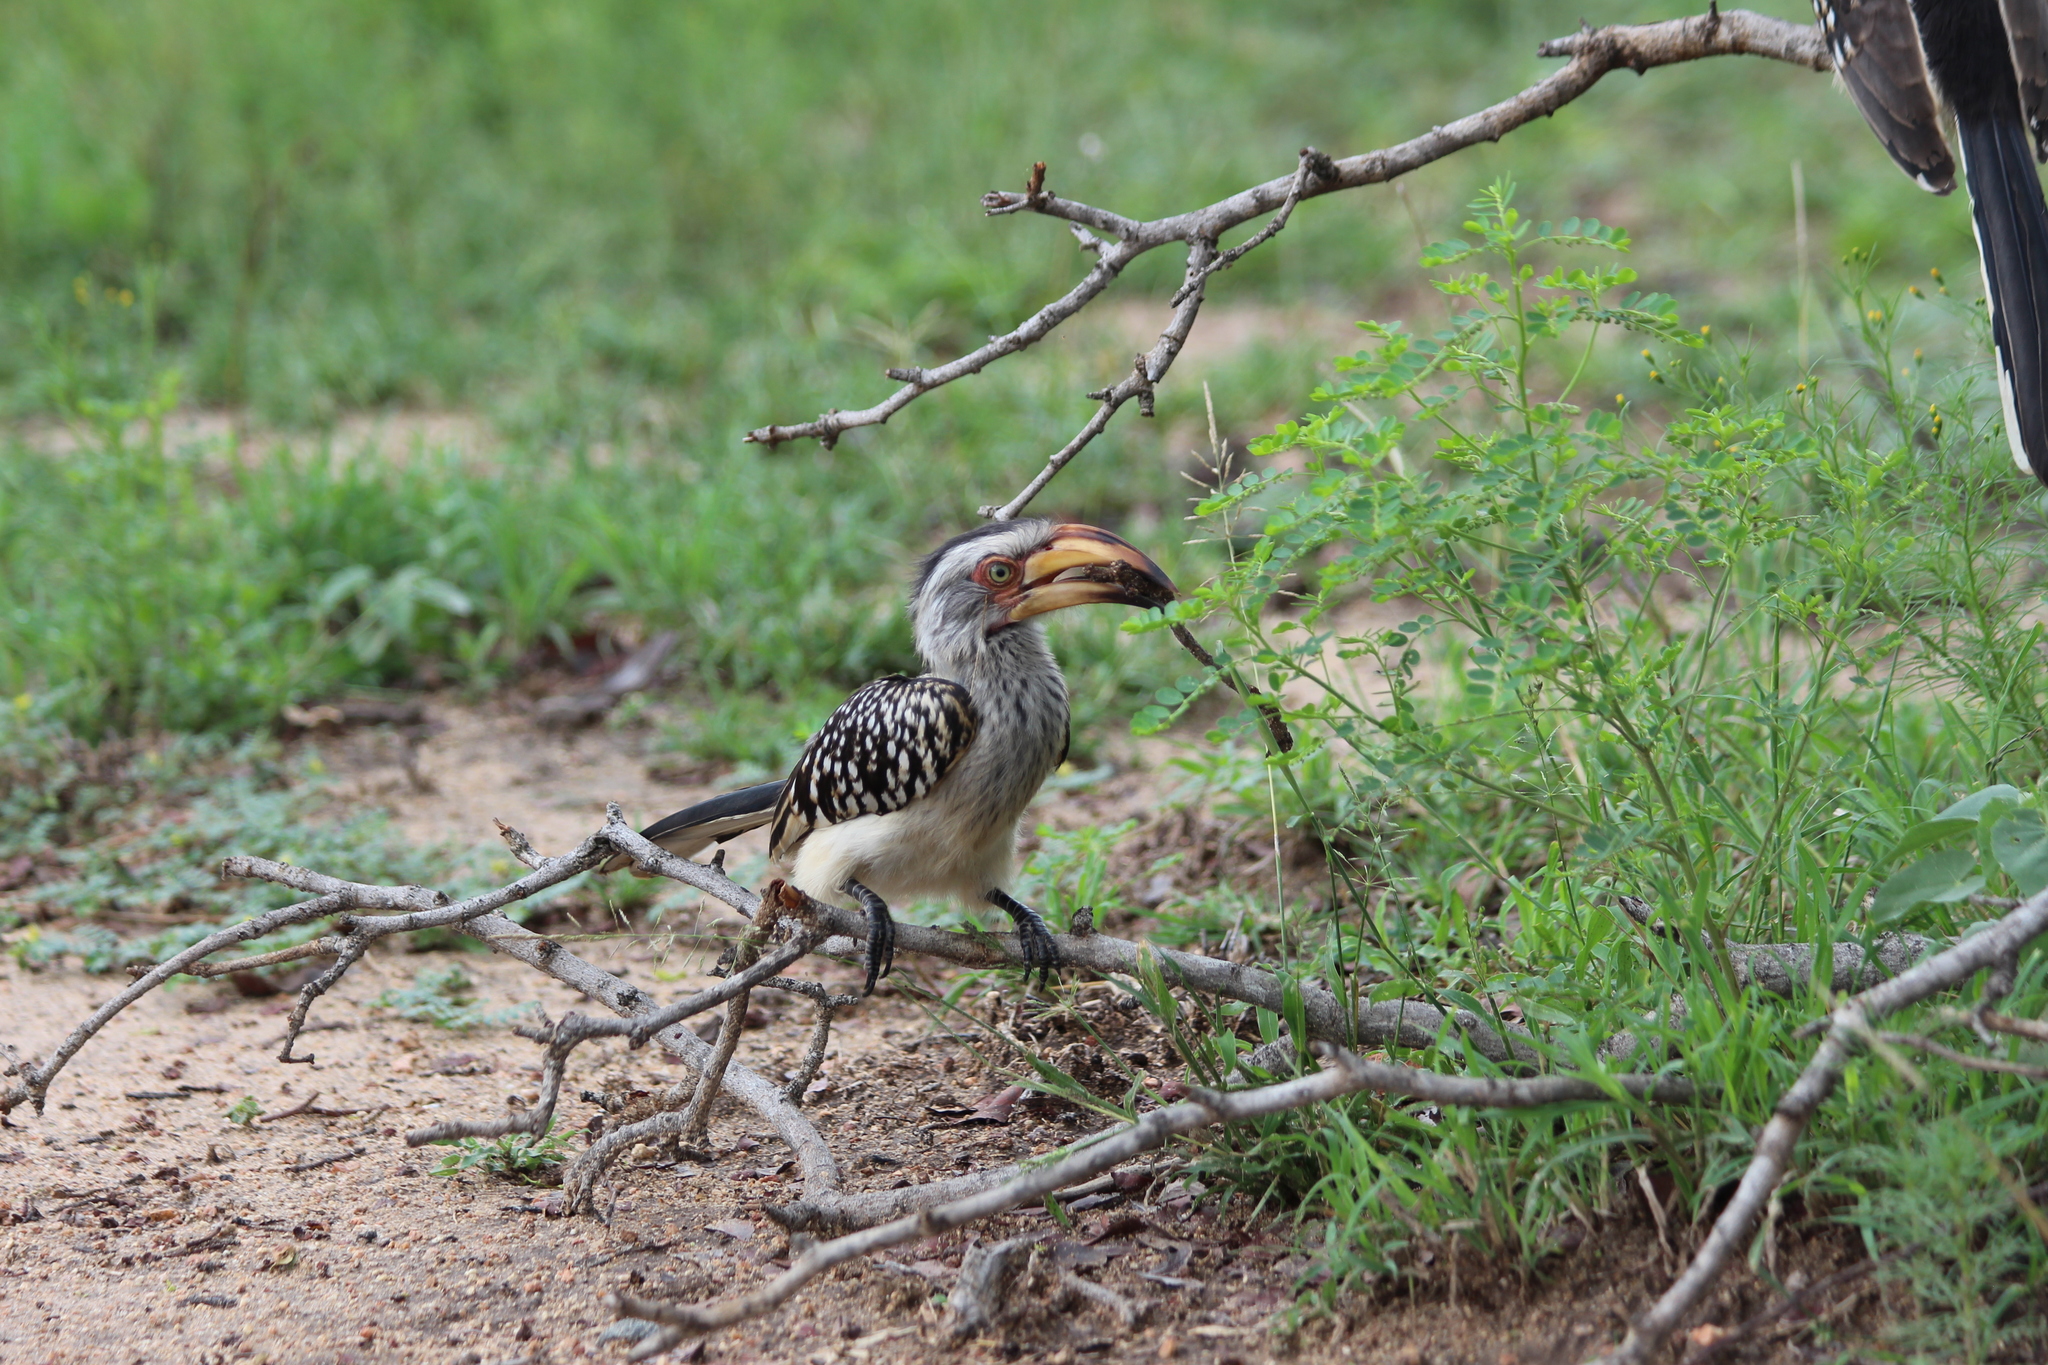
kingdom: Animalia
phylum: Chordata
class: Aves
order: Bucerotiformes
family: Bucerotidae
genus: Tockus
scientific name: Tockus leucomelas
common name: Southern yellow-billed hornbill
